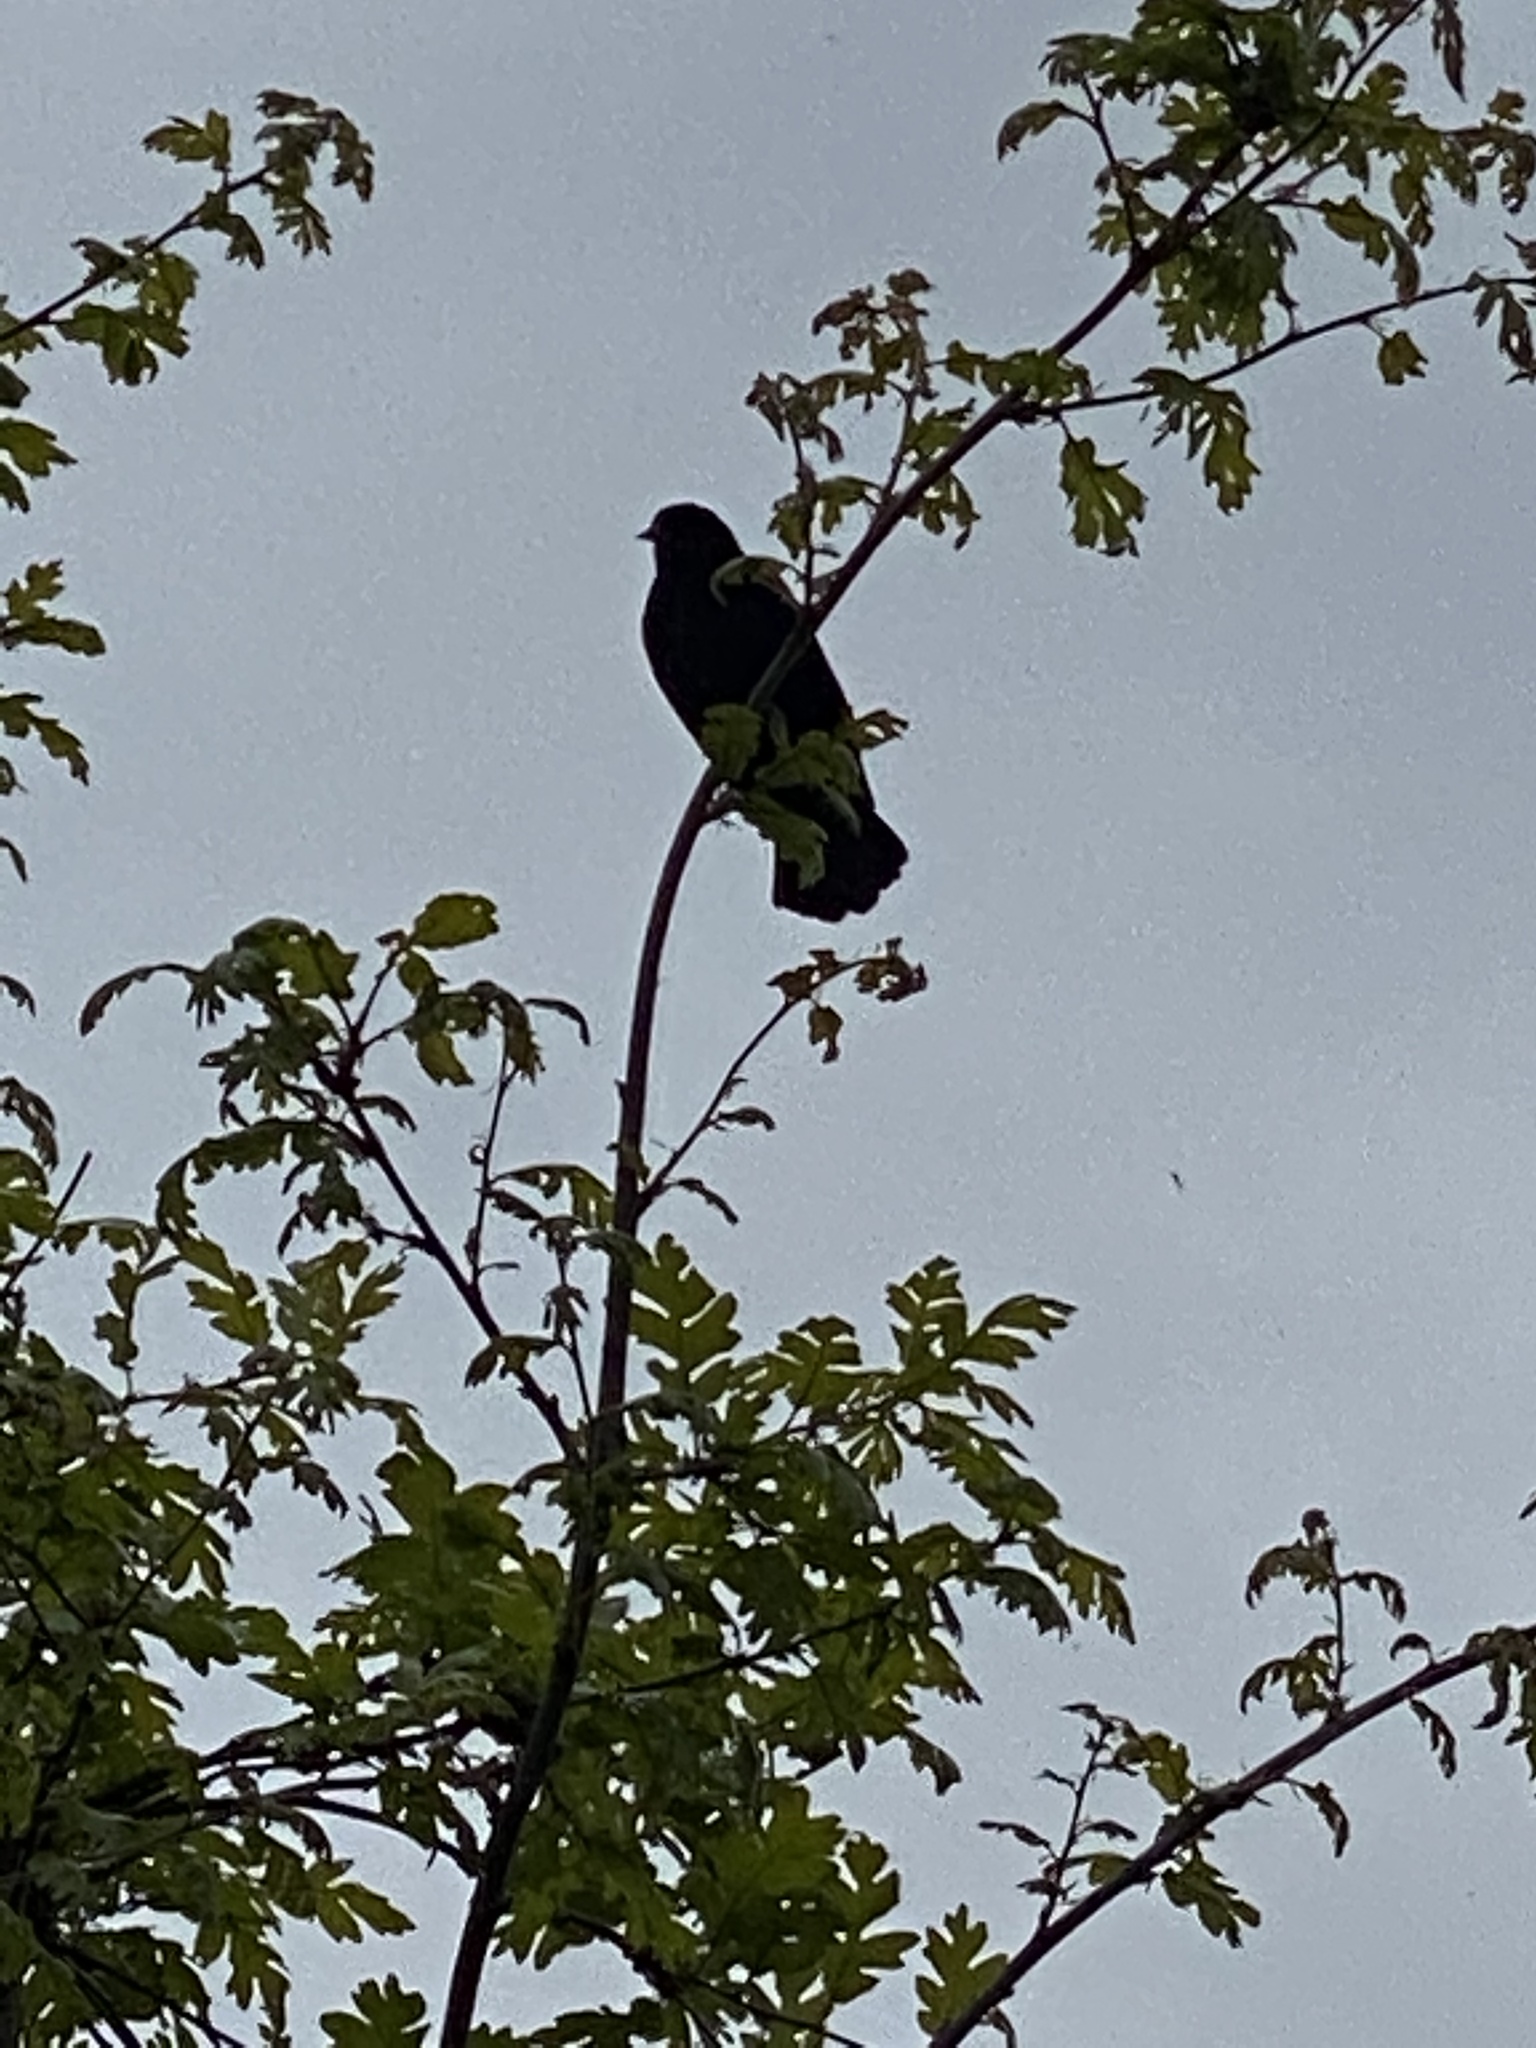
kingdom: Animalia
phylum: Chordata
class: Aves
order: Passeriformes
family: Icteridae
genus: Agelaius
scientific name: Agelaius phoeniceus
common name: Red-winged blackbird
